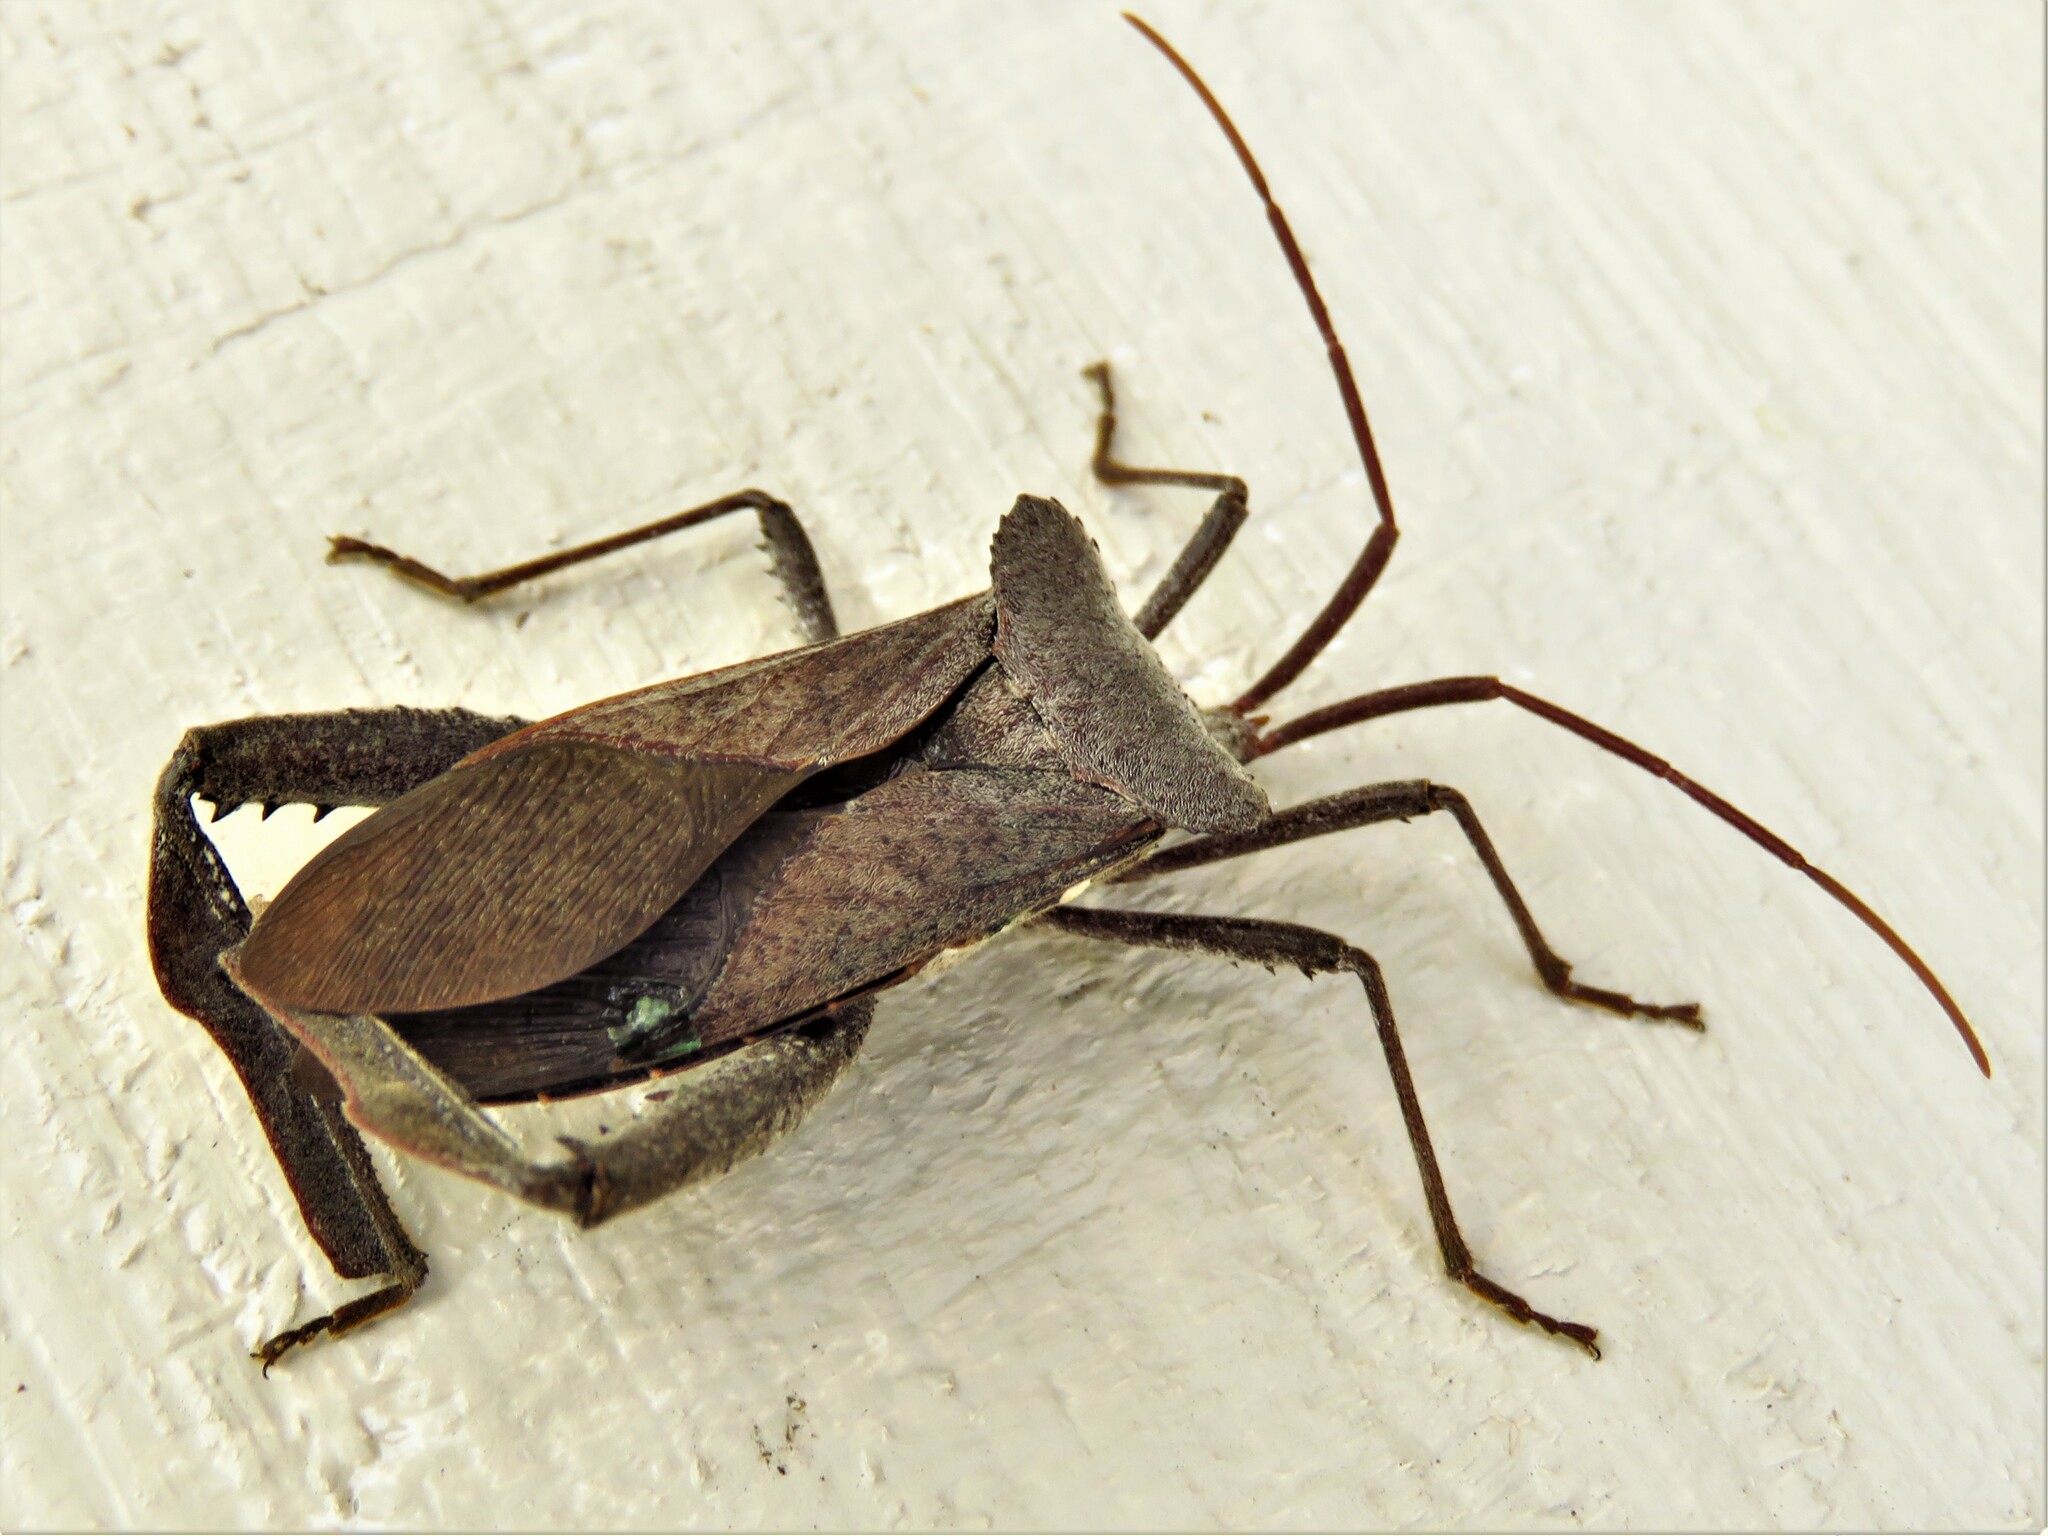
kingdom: Animalia
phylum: Arthropoda
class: Insecta
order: Hemiptera
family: Coreidae
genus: Acanthocephala
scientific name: Acanthocephala declivis
